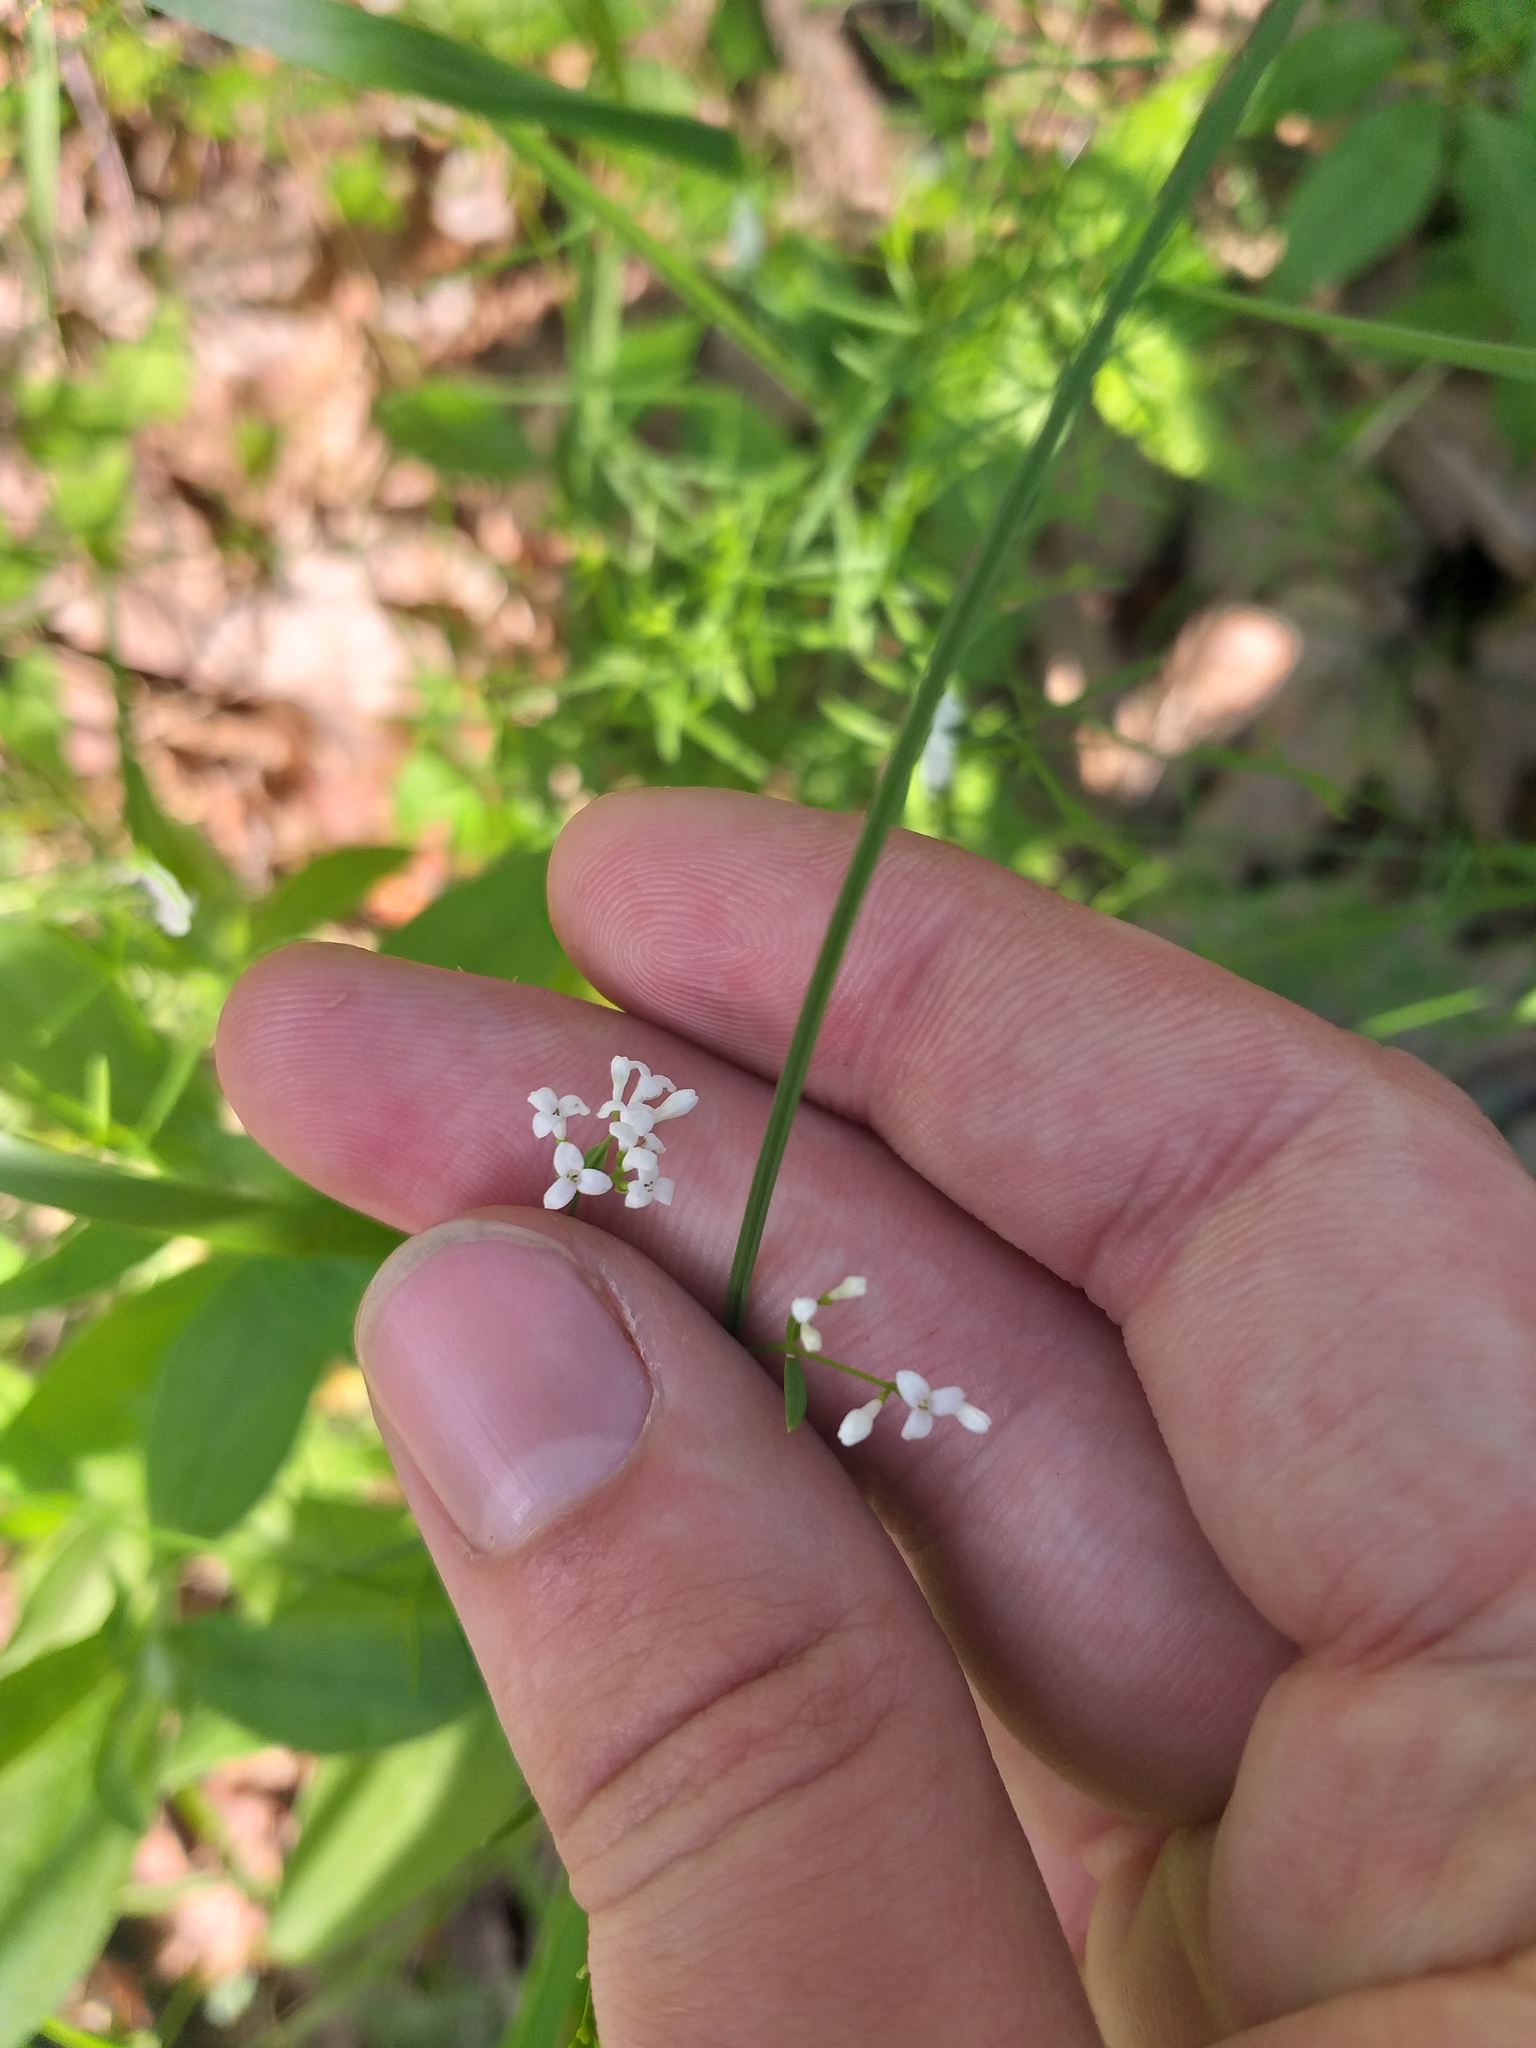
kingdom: Plantae
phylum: Tracheophyta
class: Magnoliopsida
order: Gentianales
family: Rubiaceae
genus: Asperula
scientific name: Asperula tinctoria
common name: Dyer's woodruff
